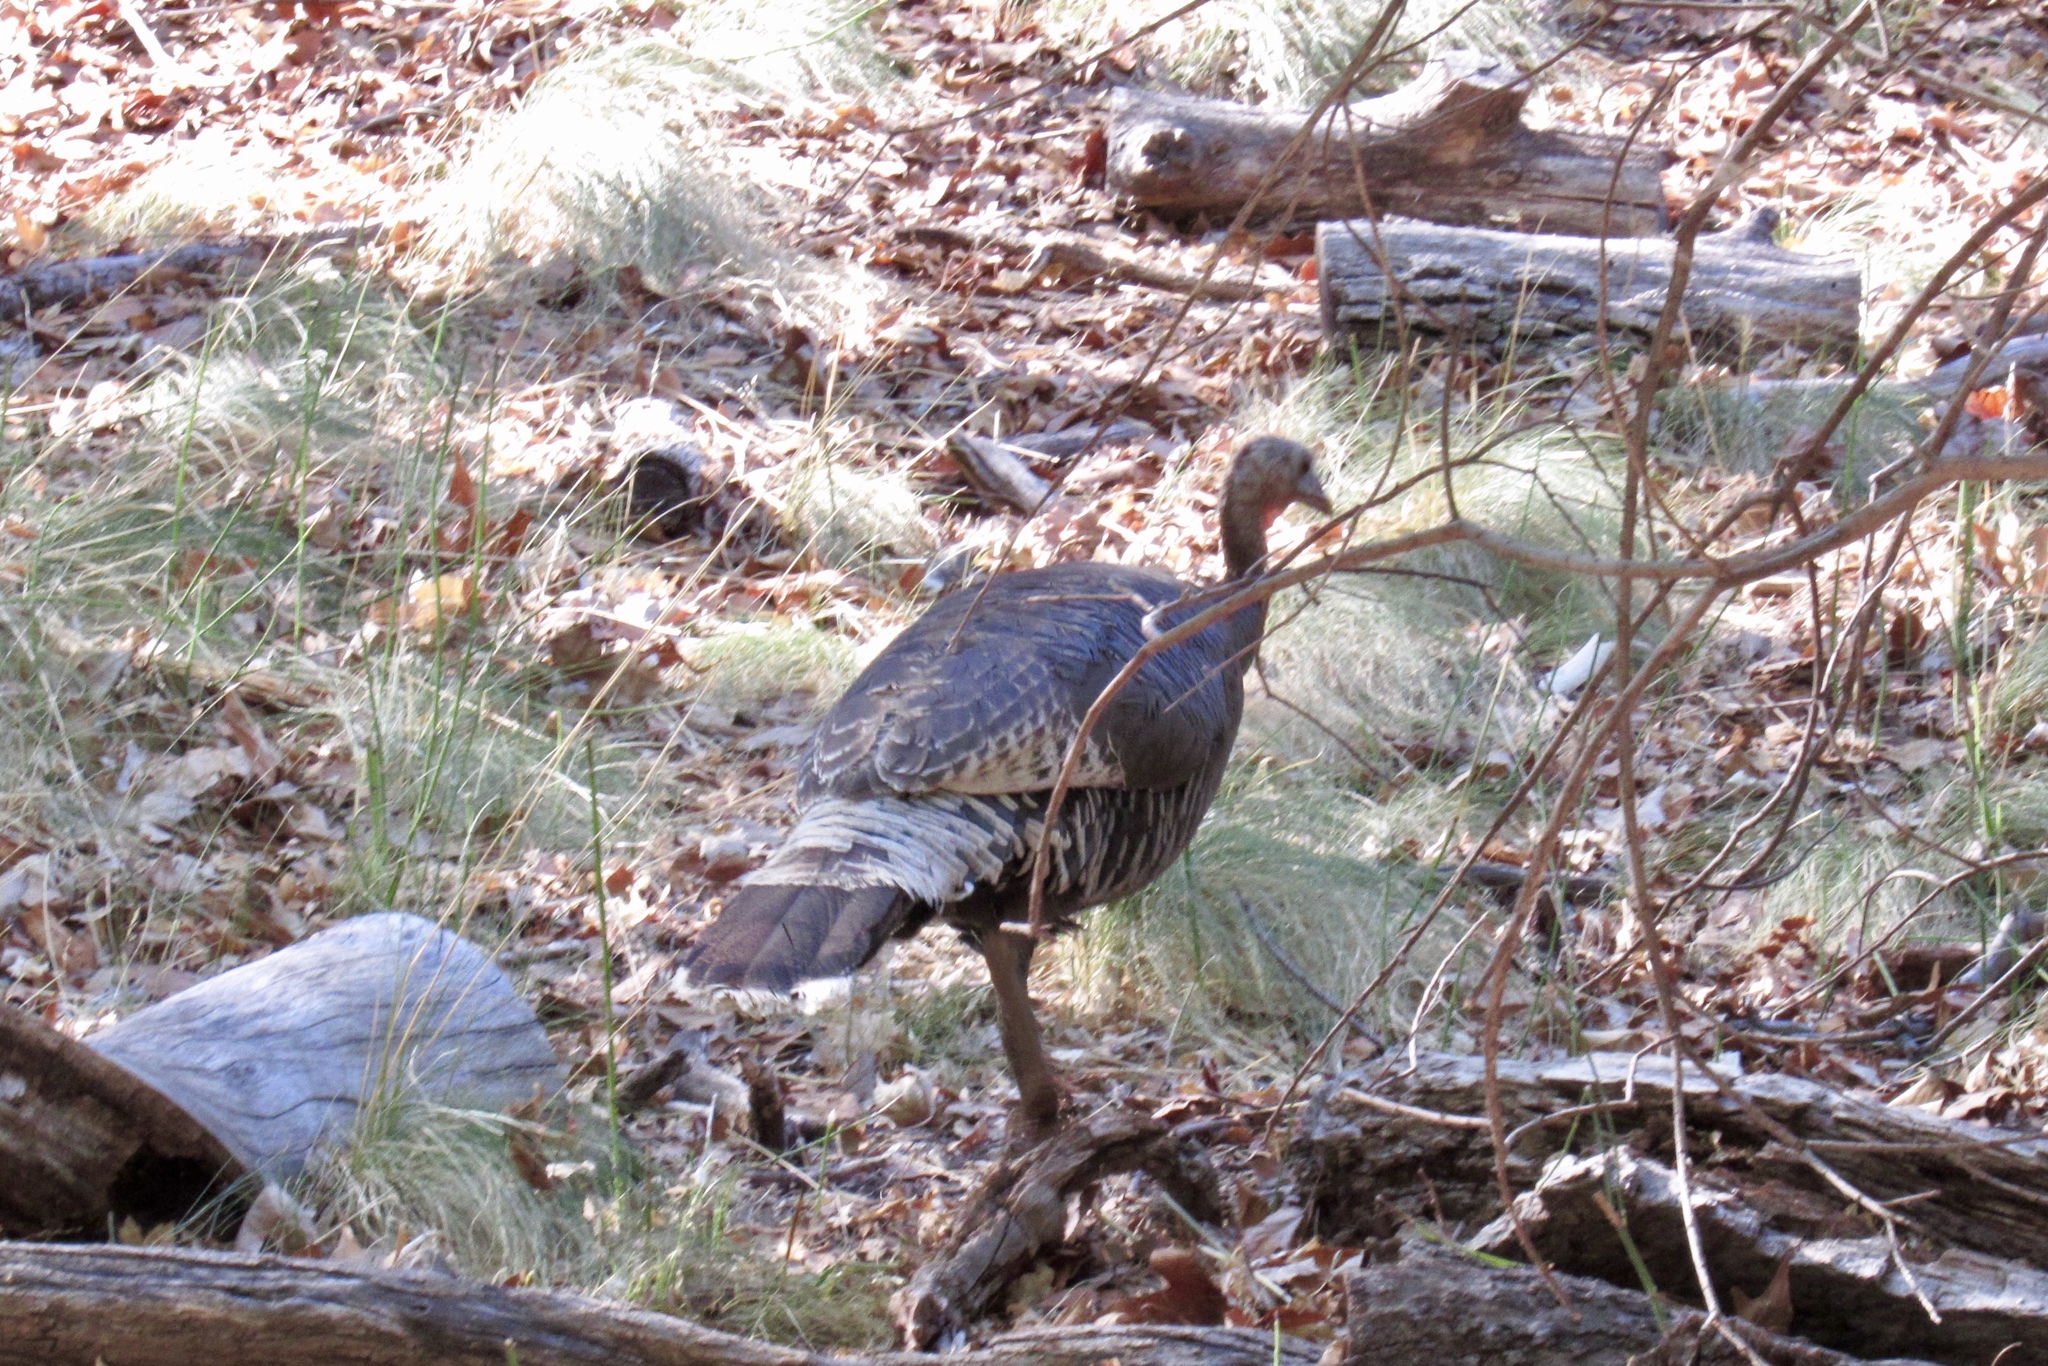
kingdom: Animalia
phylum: Chordata
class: Aves
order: Galliformes
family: Phasianidae
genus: Meleagris
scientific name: Meleagris gallopavo
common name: Wild turkey
